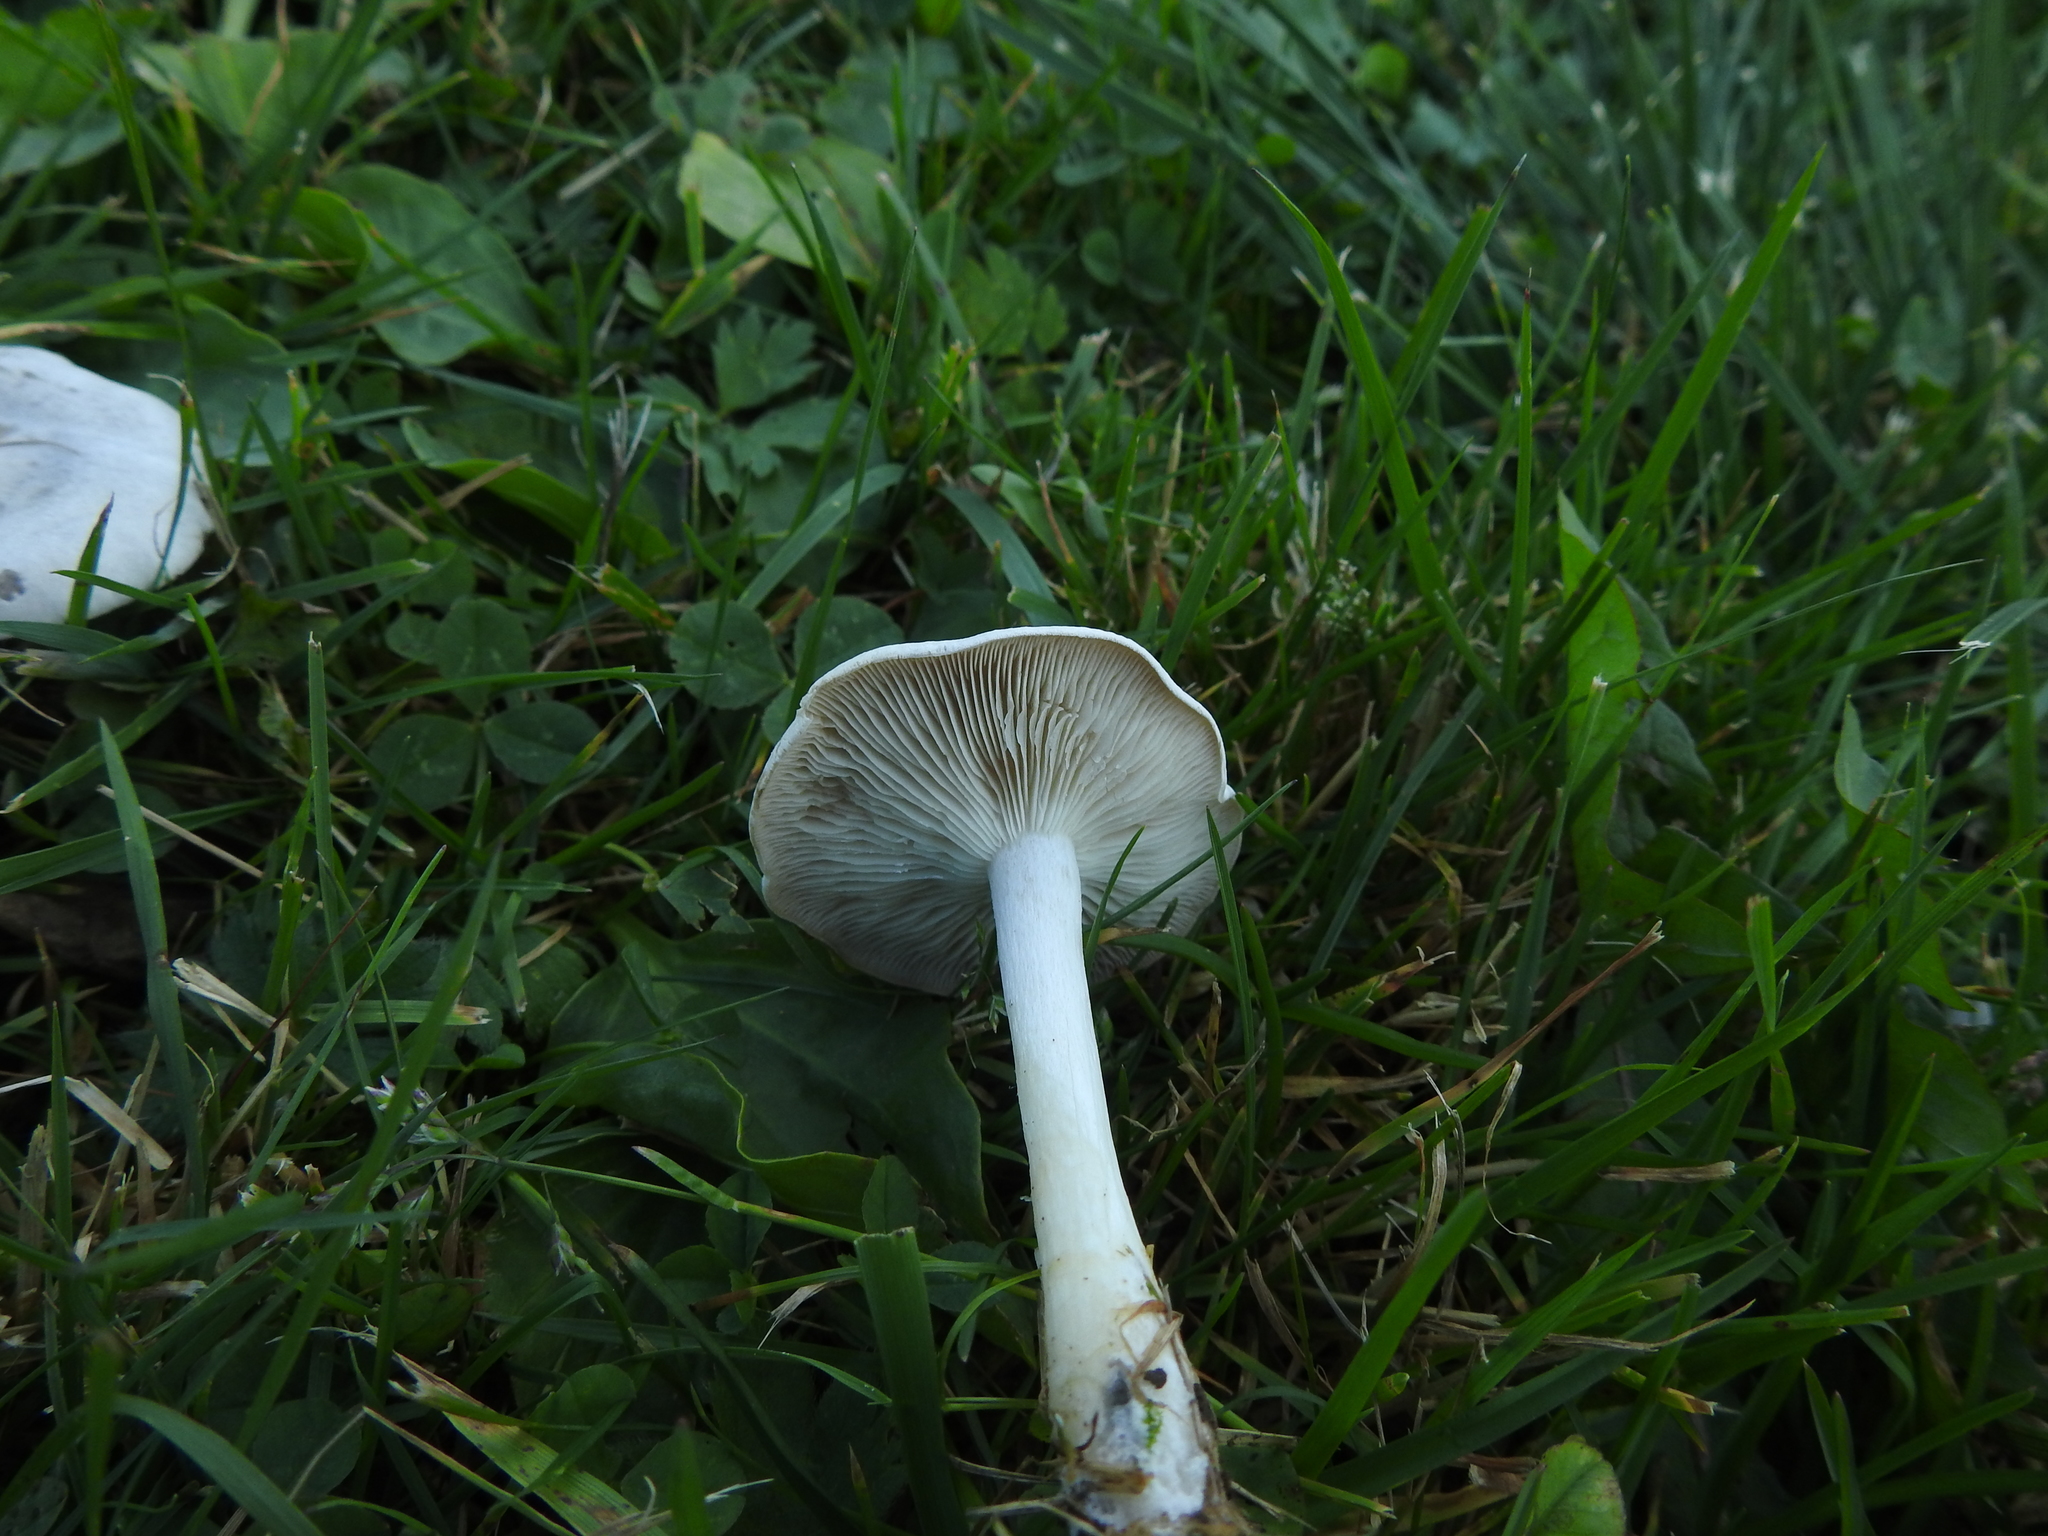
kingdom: Fungi
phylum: Basidiomycota
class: Agaricomycetes
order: Agaricales
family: Tricholomataceae
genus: Leucocybe
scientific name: Leucocybe connata
